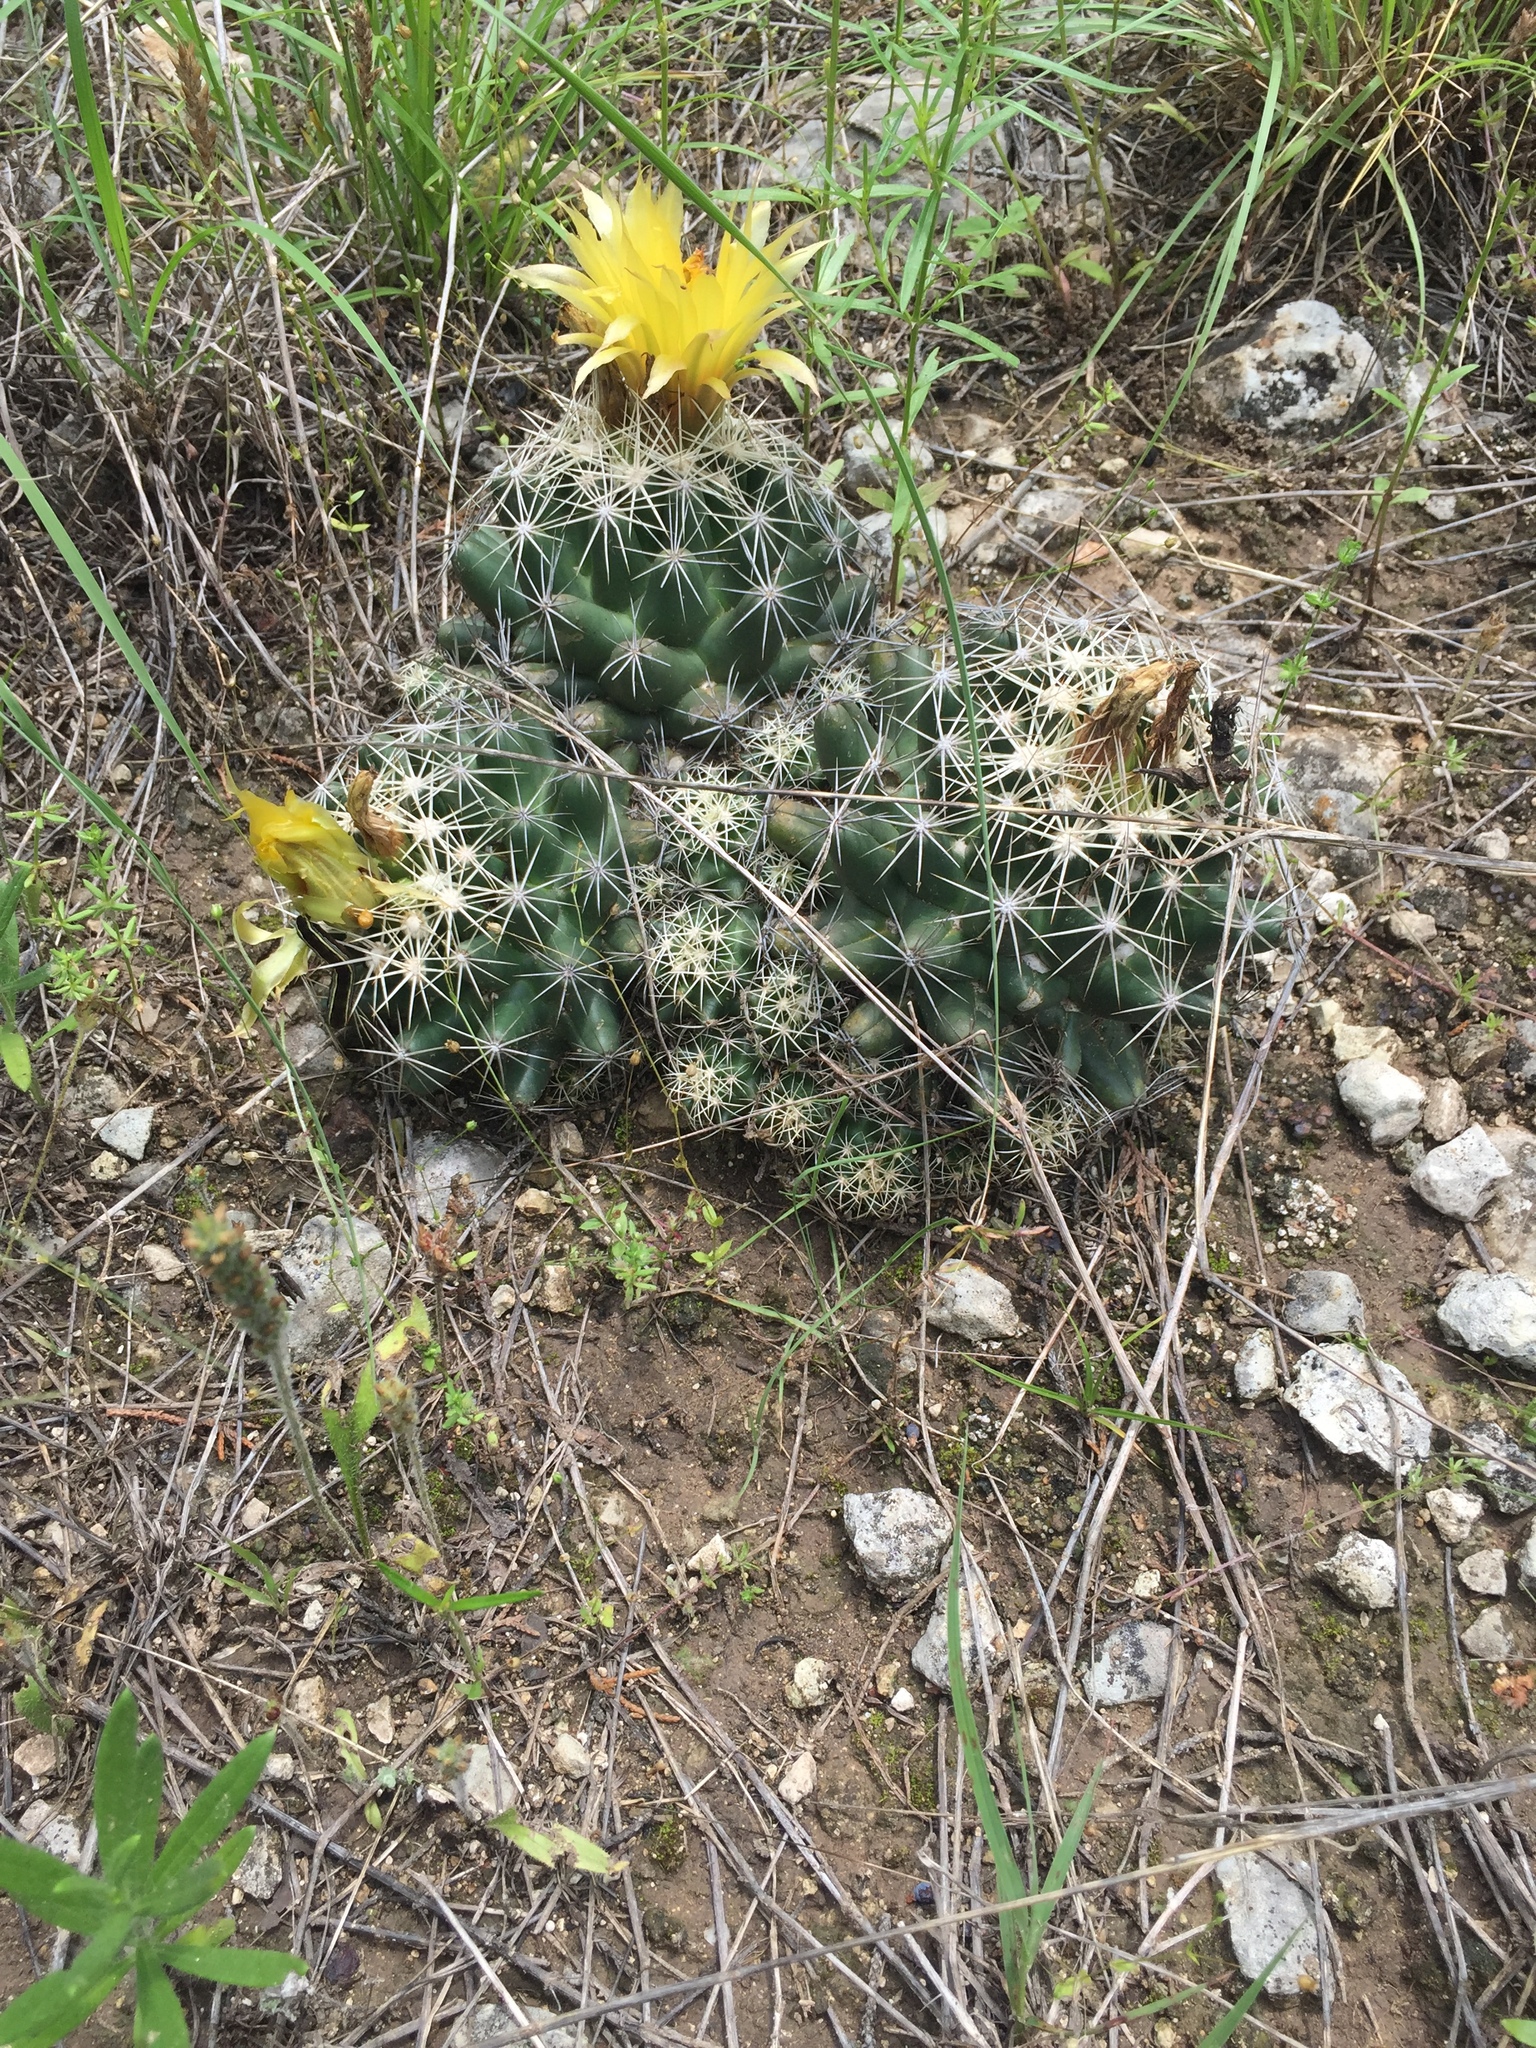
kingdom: Plantae
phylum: Tracheophyta
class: Magnoliopsida
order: Caryophyllales
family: Cactaceae
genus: Coryphantha
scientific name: Coryphantha sulcata
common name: Finger cactus
